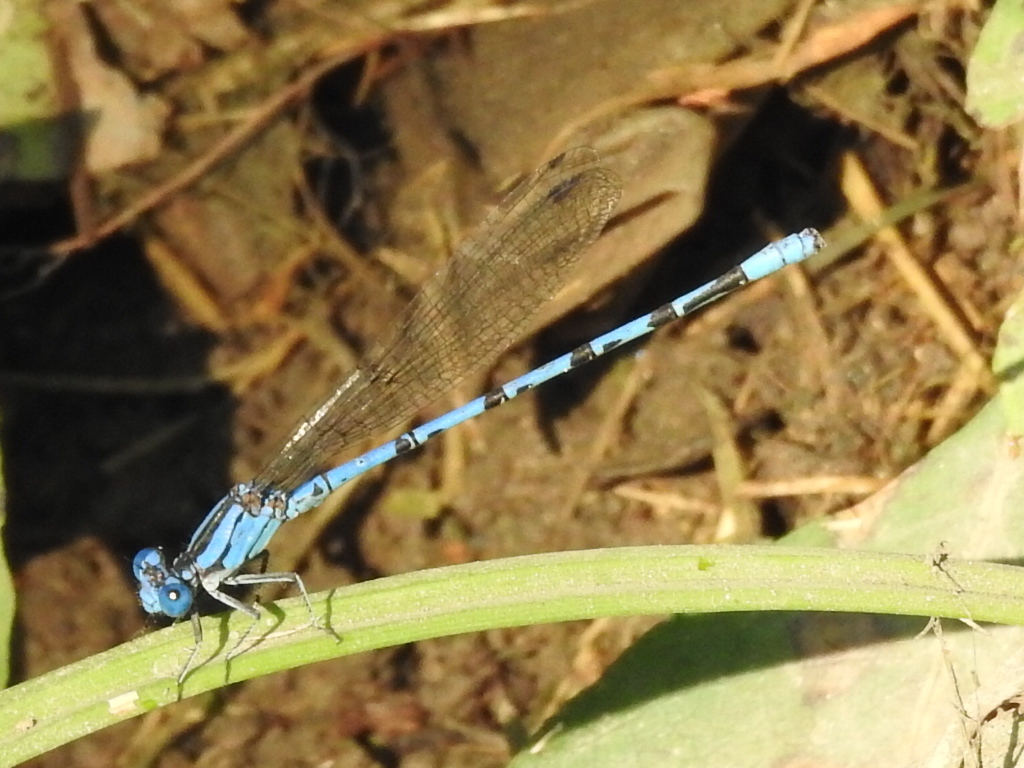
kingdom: Animalia
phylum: Arthropoda
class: Insecta
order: Odonata
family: Coenagrionidae
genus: Argia
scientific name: Argia funebris
